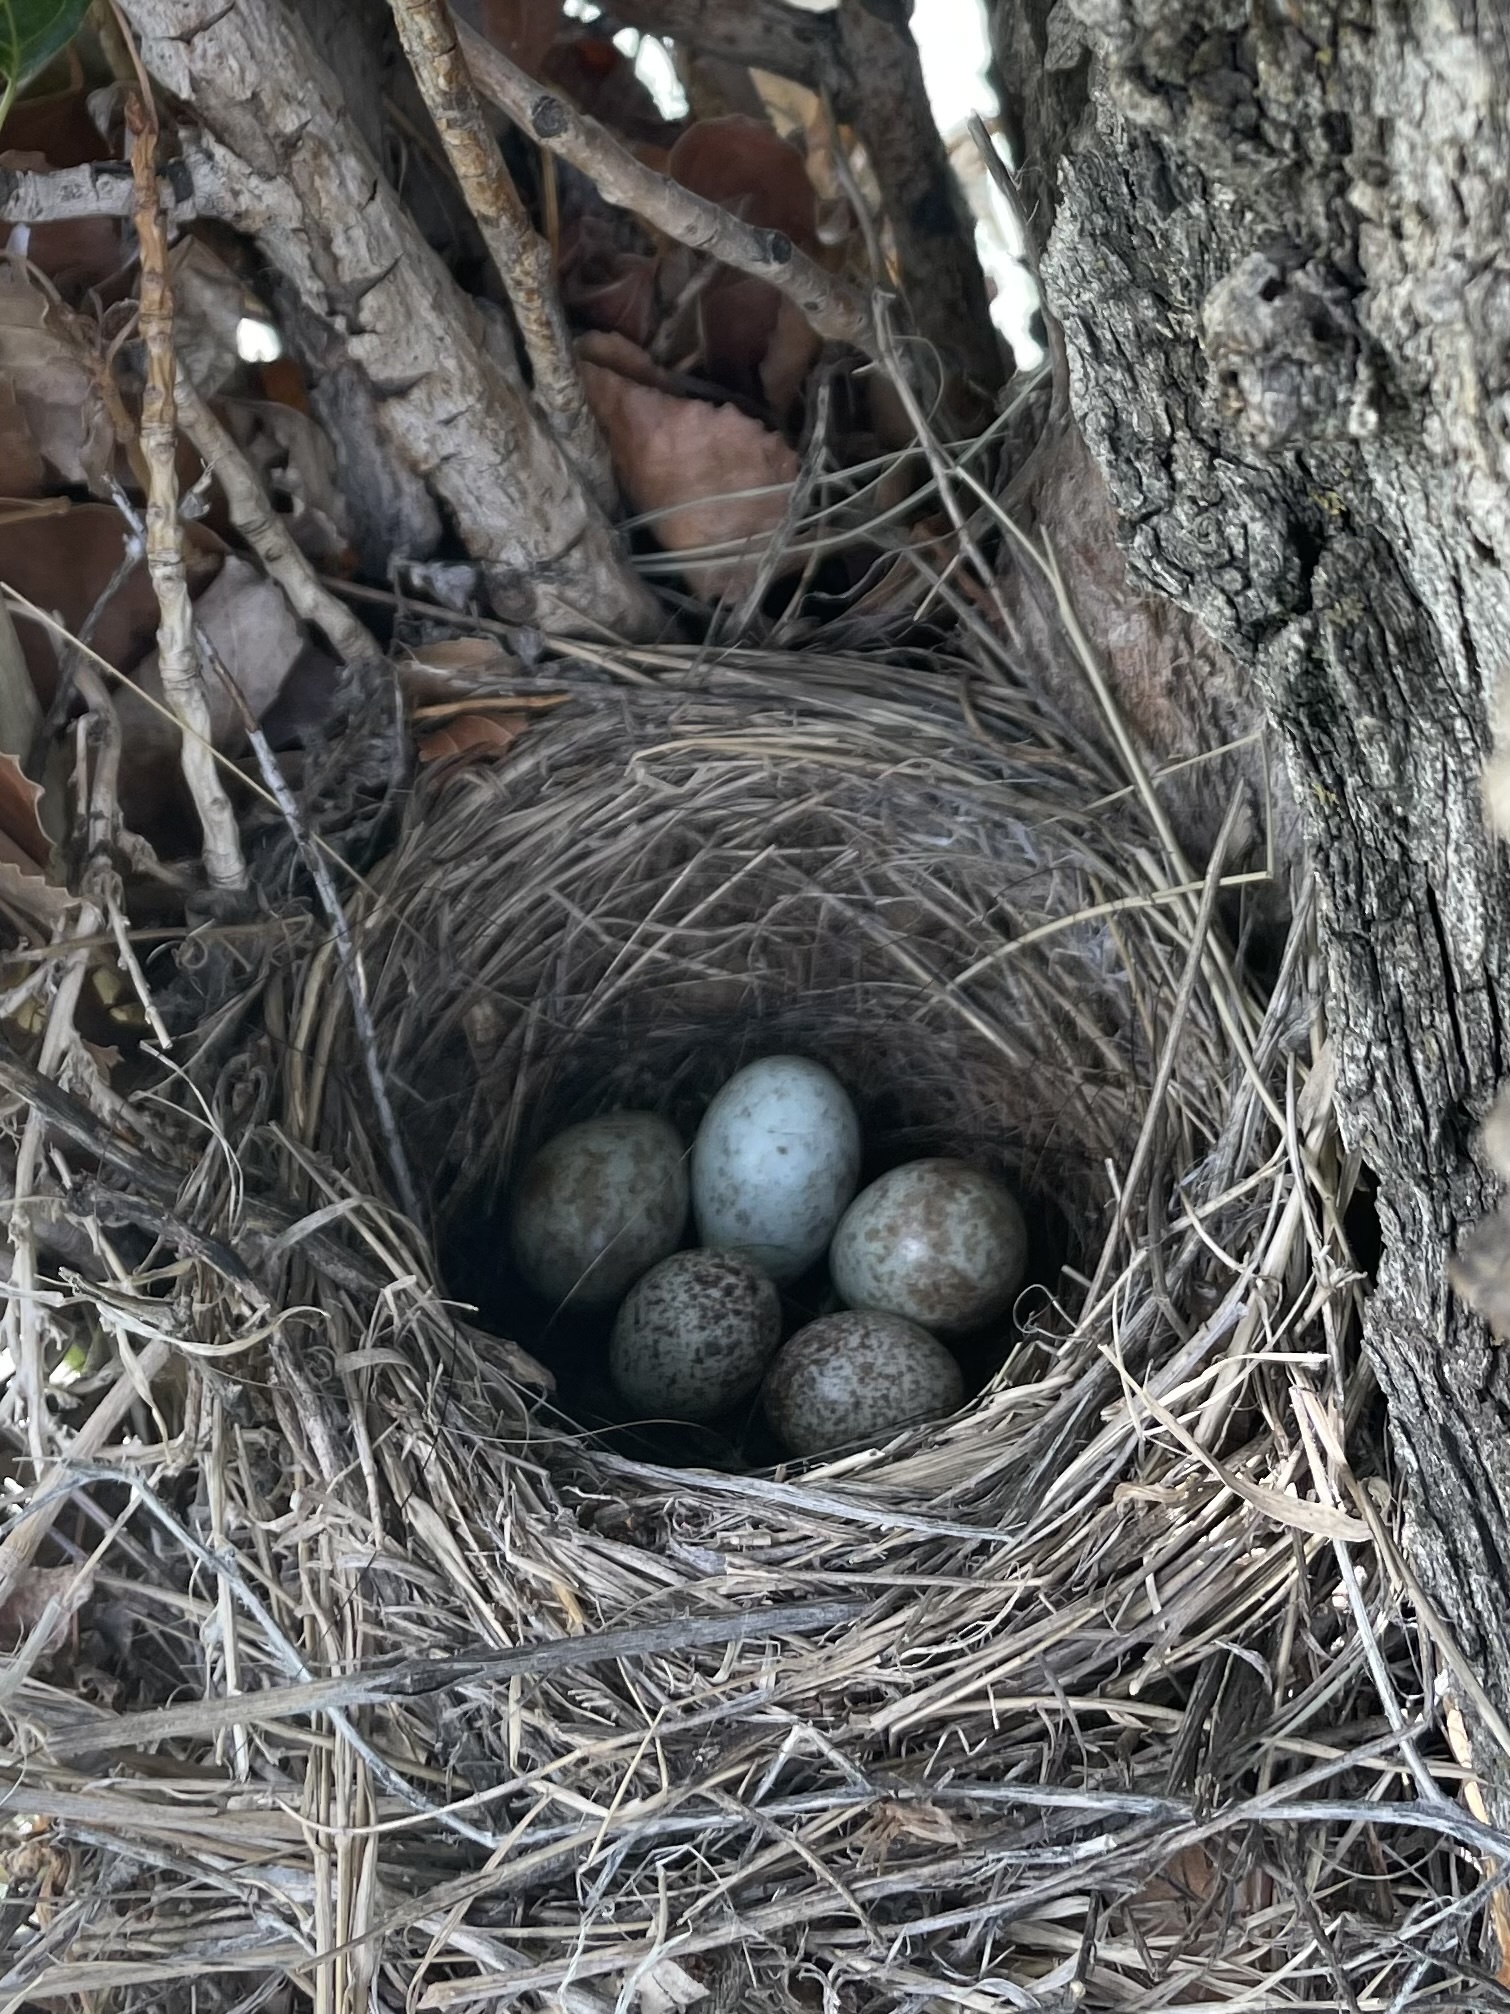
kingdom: Animalia
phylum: Chordata
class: Aves
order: Passeriformes
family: Icteridae
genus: Molothrus
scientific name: Molothrus ater
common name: Brown-headed cowbird
